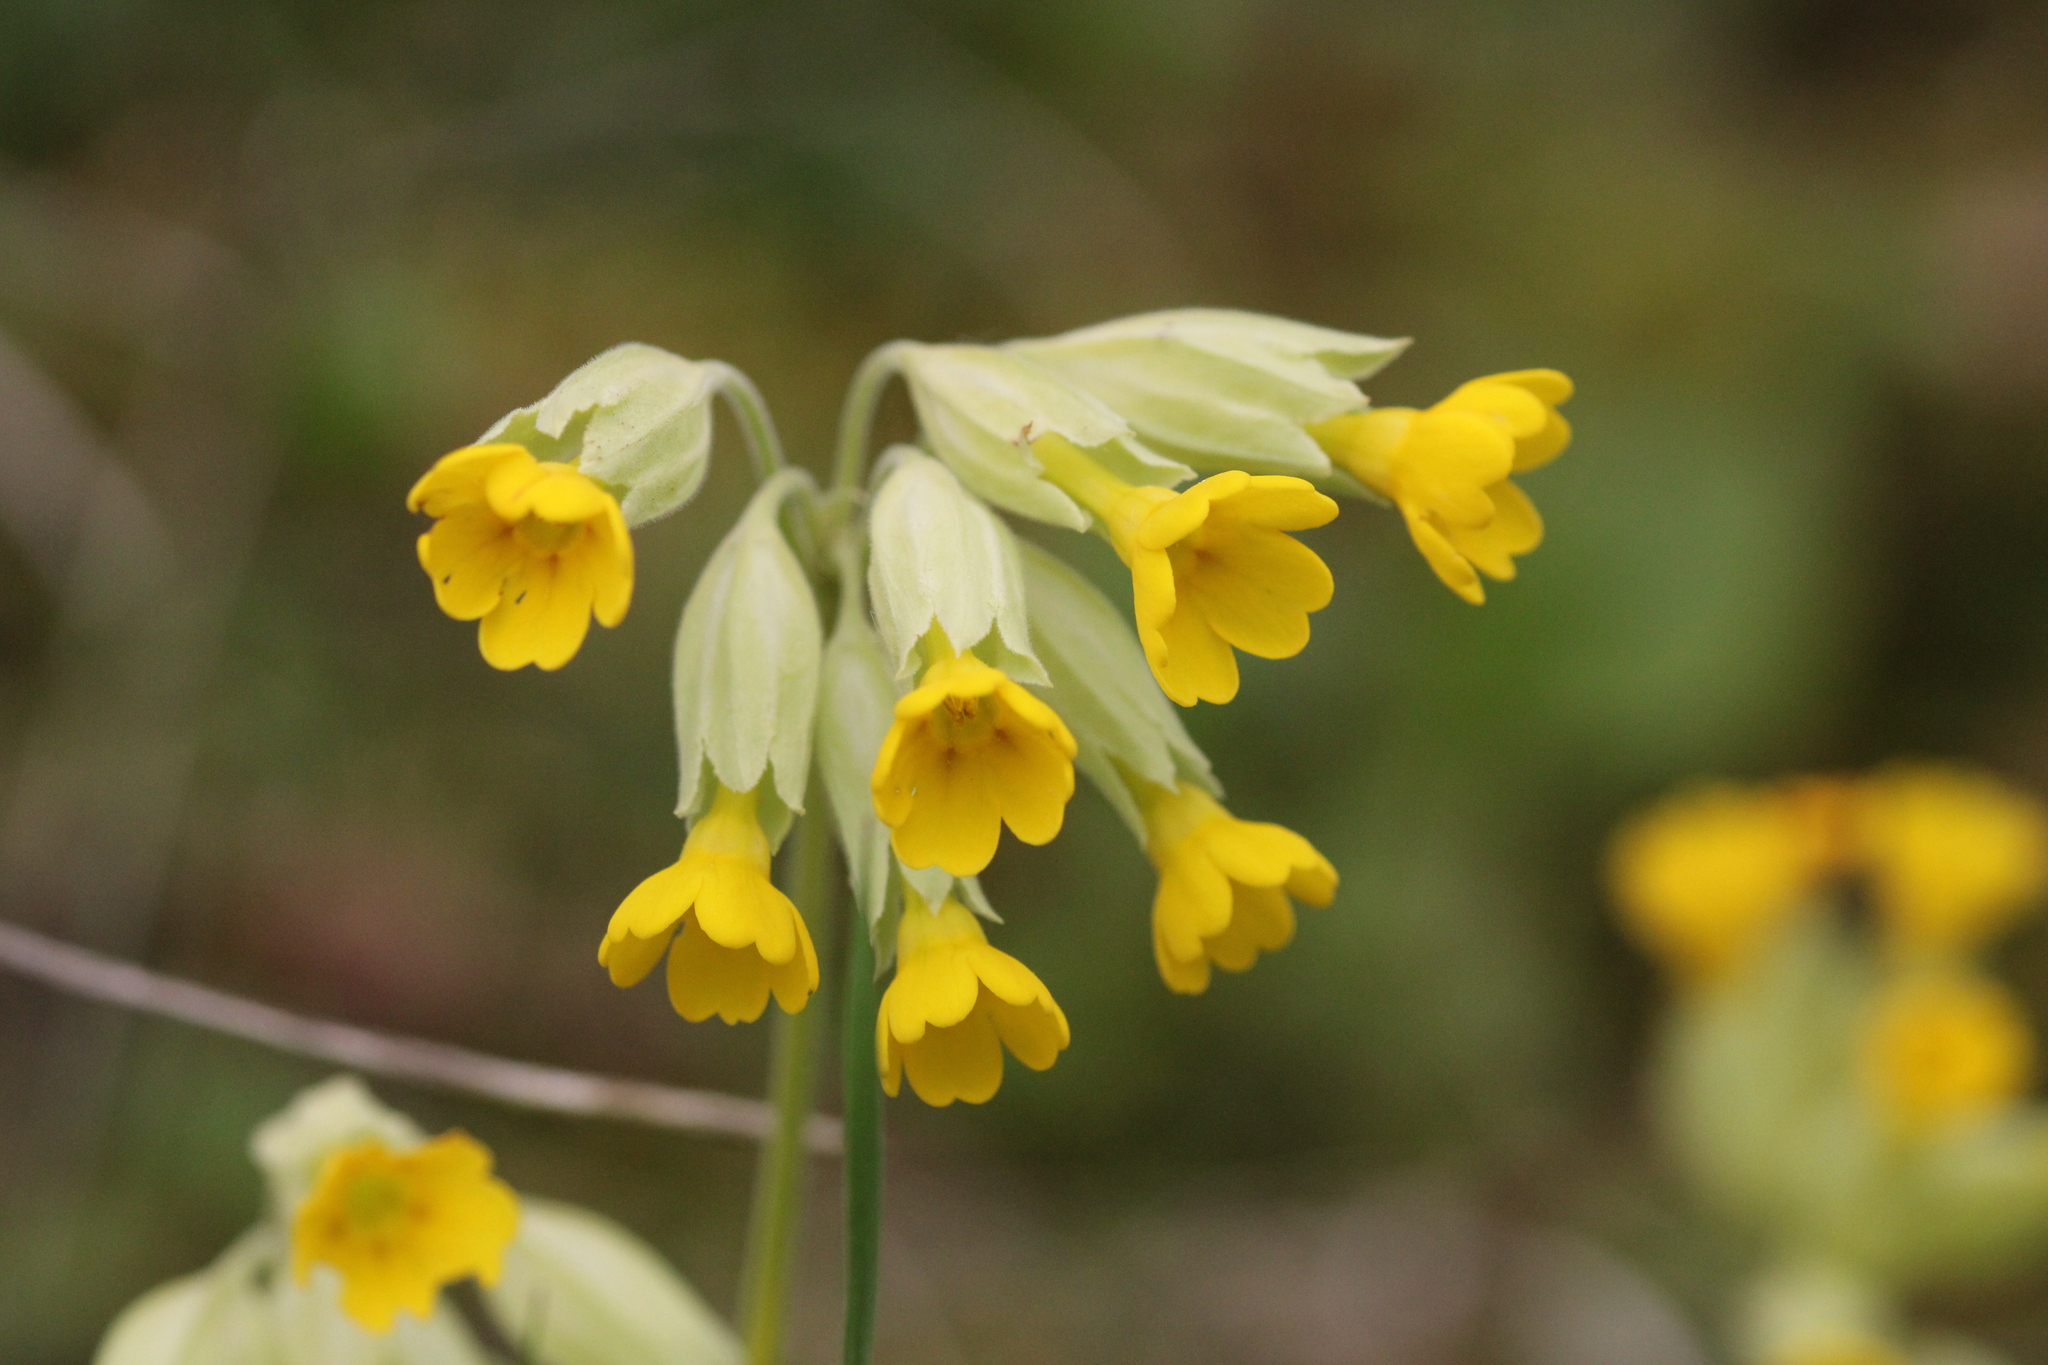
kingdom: Plantae
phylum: Tracheophyta
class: Magnoliopsida
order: Ericales
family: Primulaceae
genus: Primula
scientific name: Primula veris
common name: Cowslip
